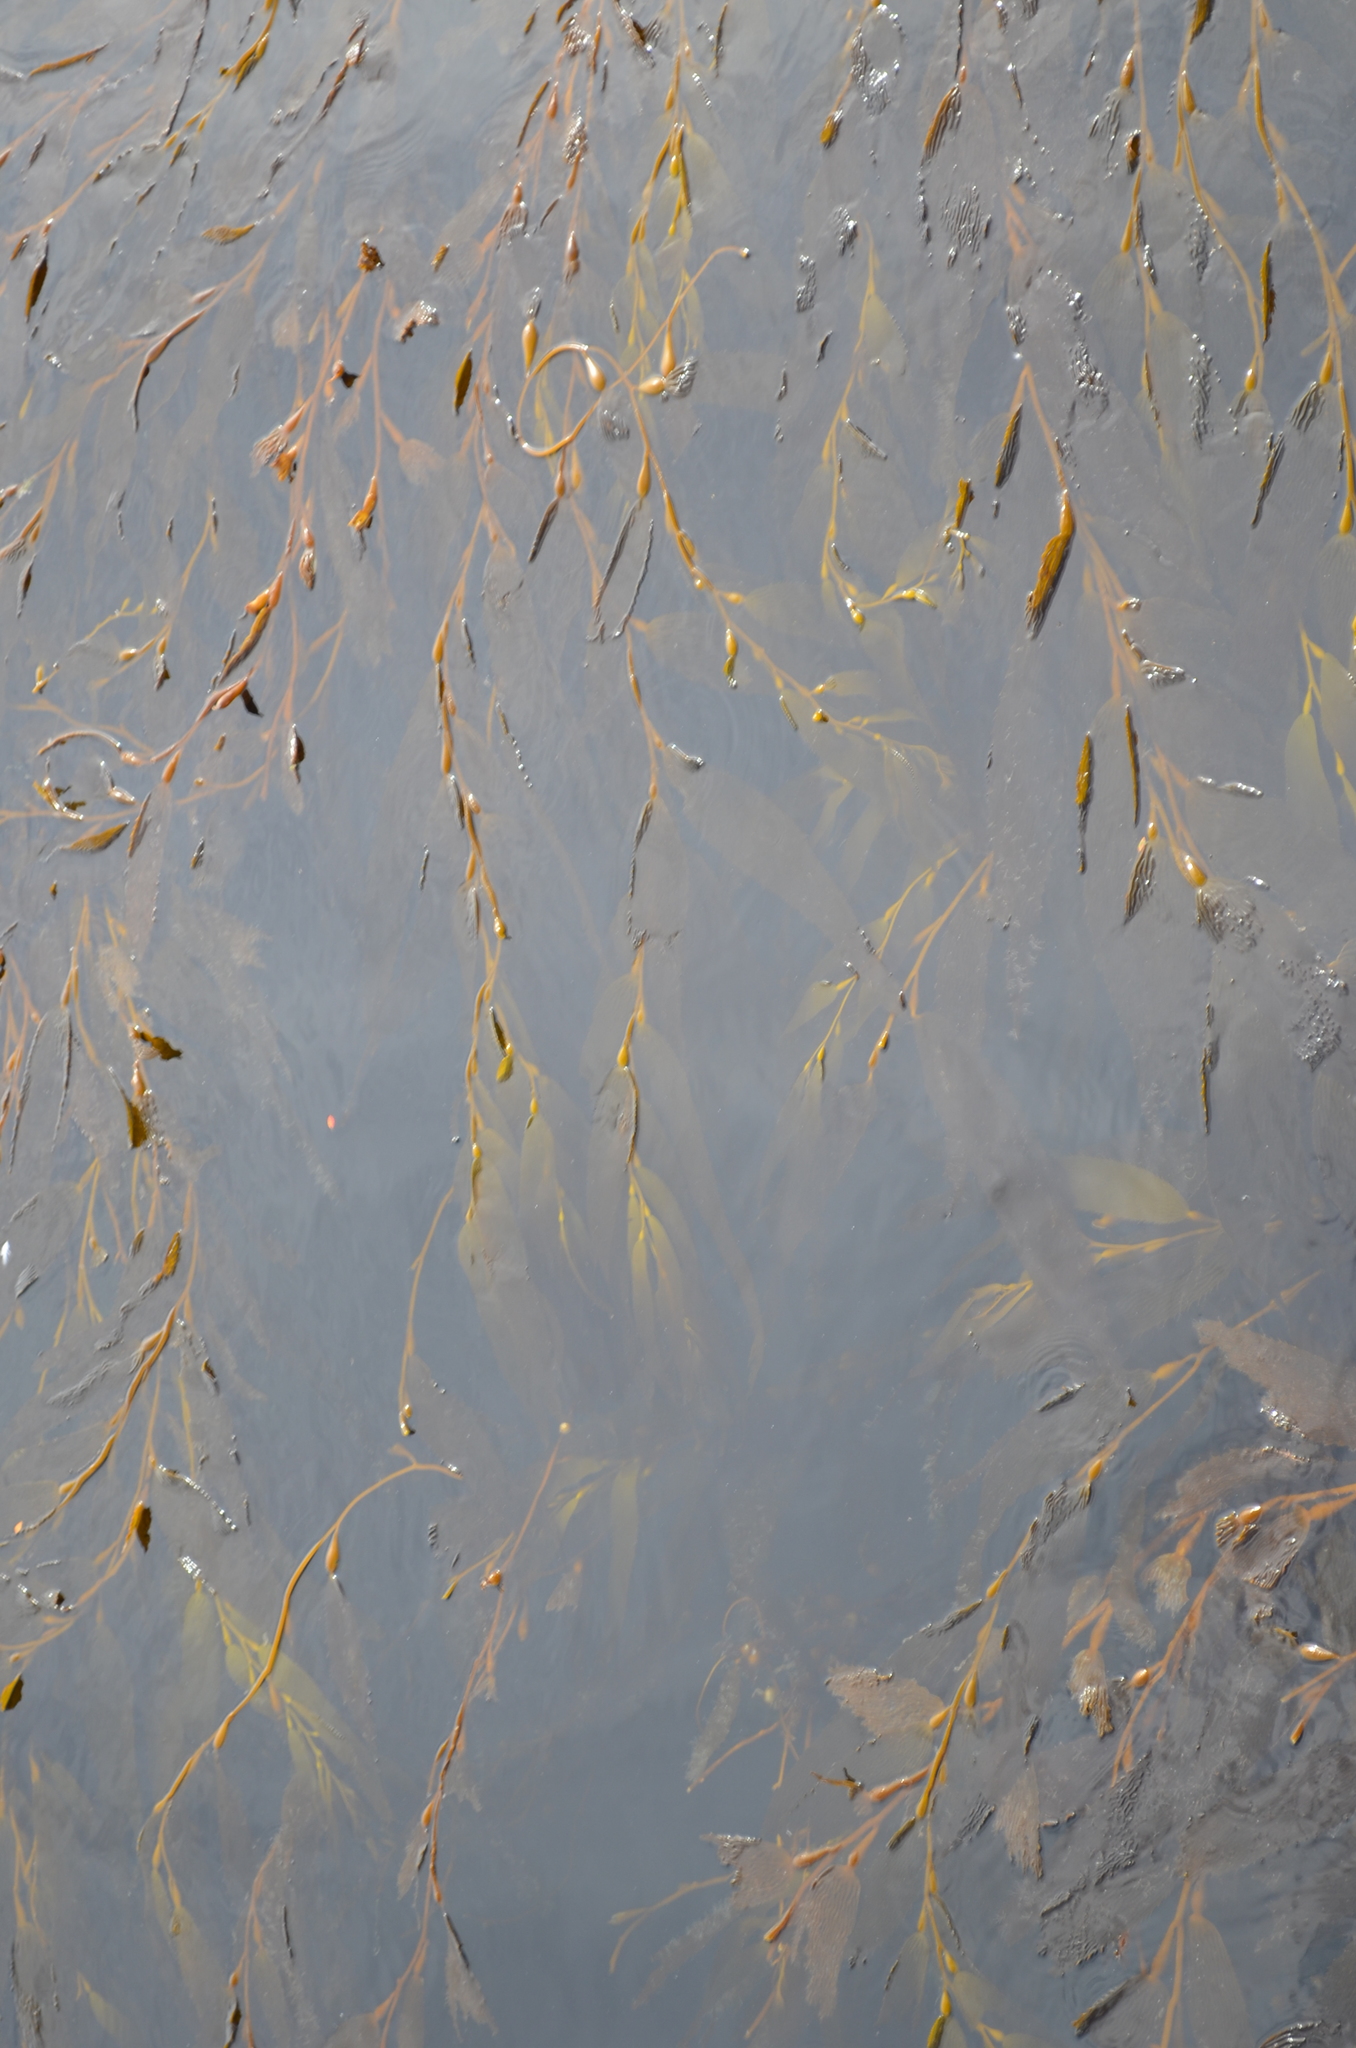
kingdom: Chromista
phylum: Ochrophyta
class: Phaeophyceae
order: Laminariales
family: Laminariaceae
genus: Macrocystis
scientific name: Macrocystis pyrifera
